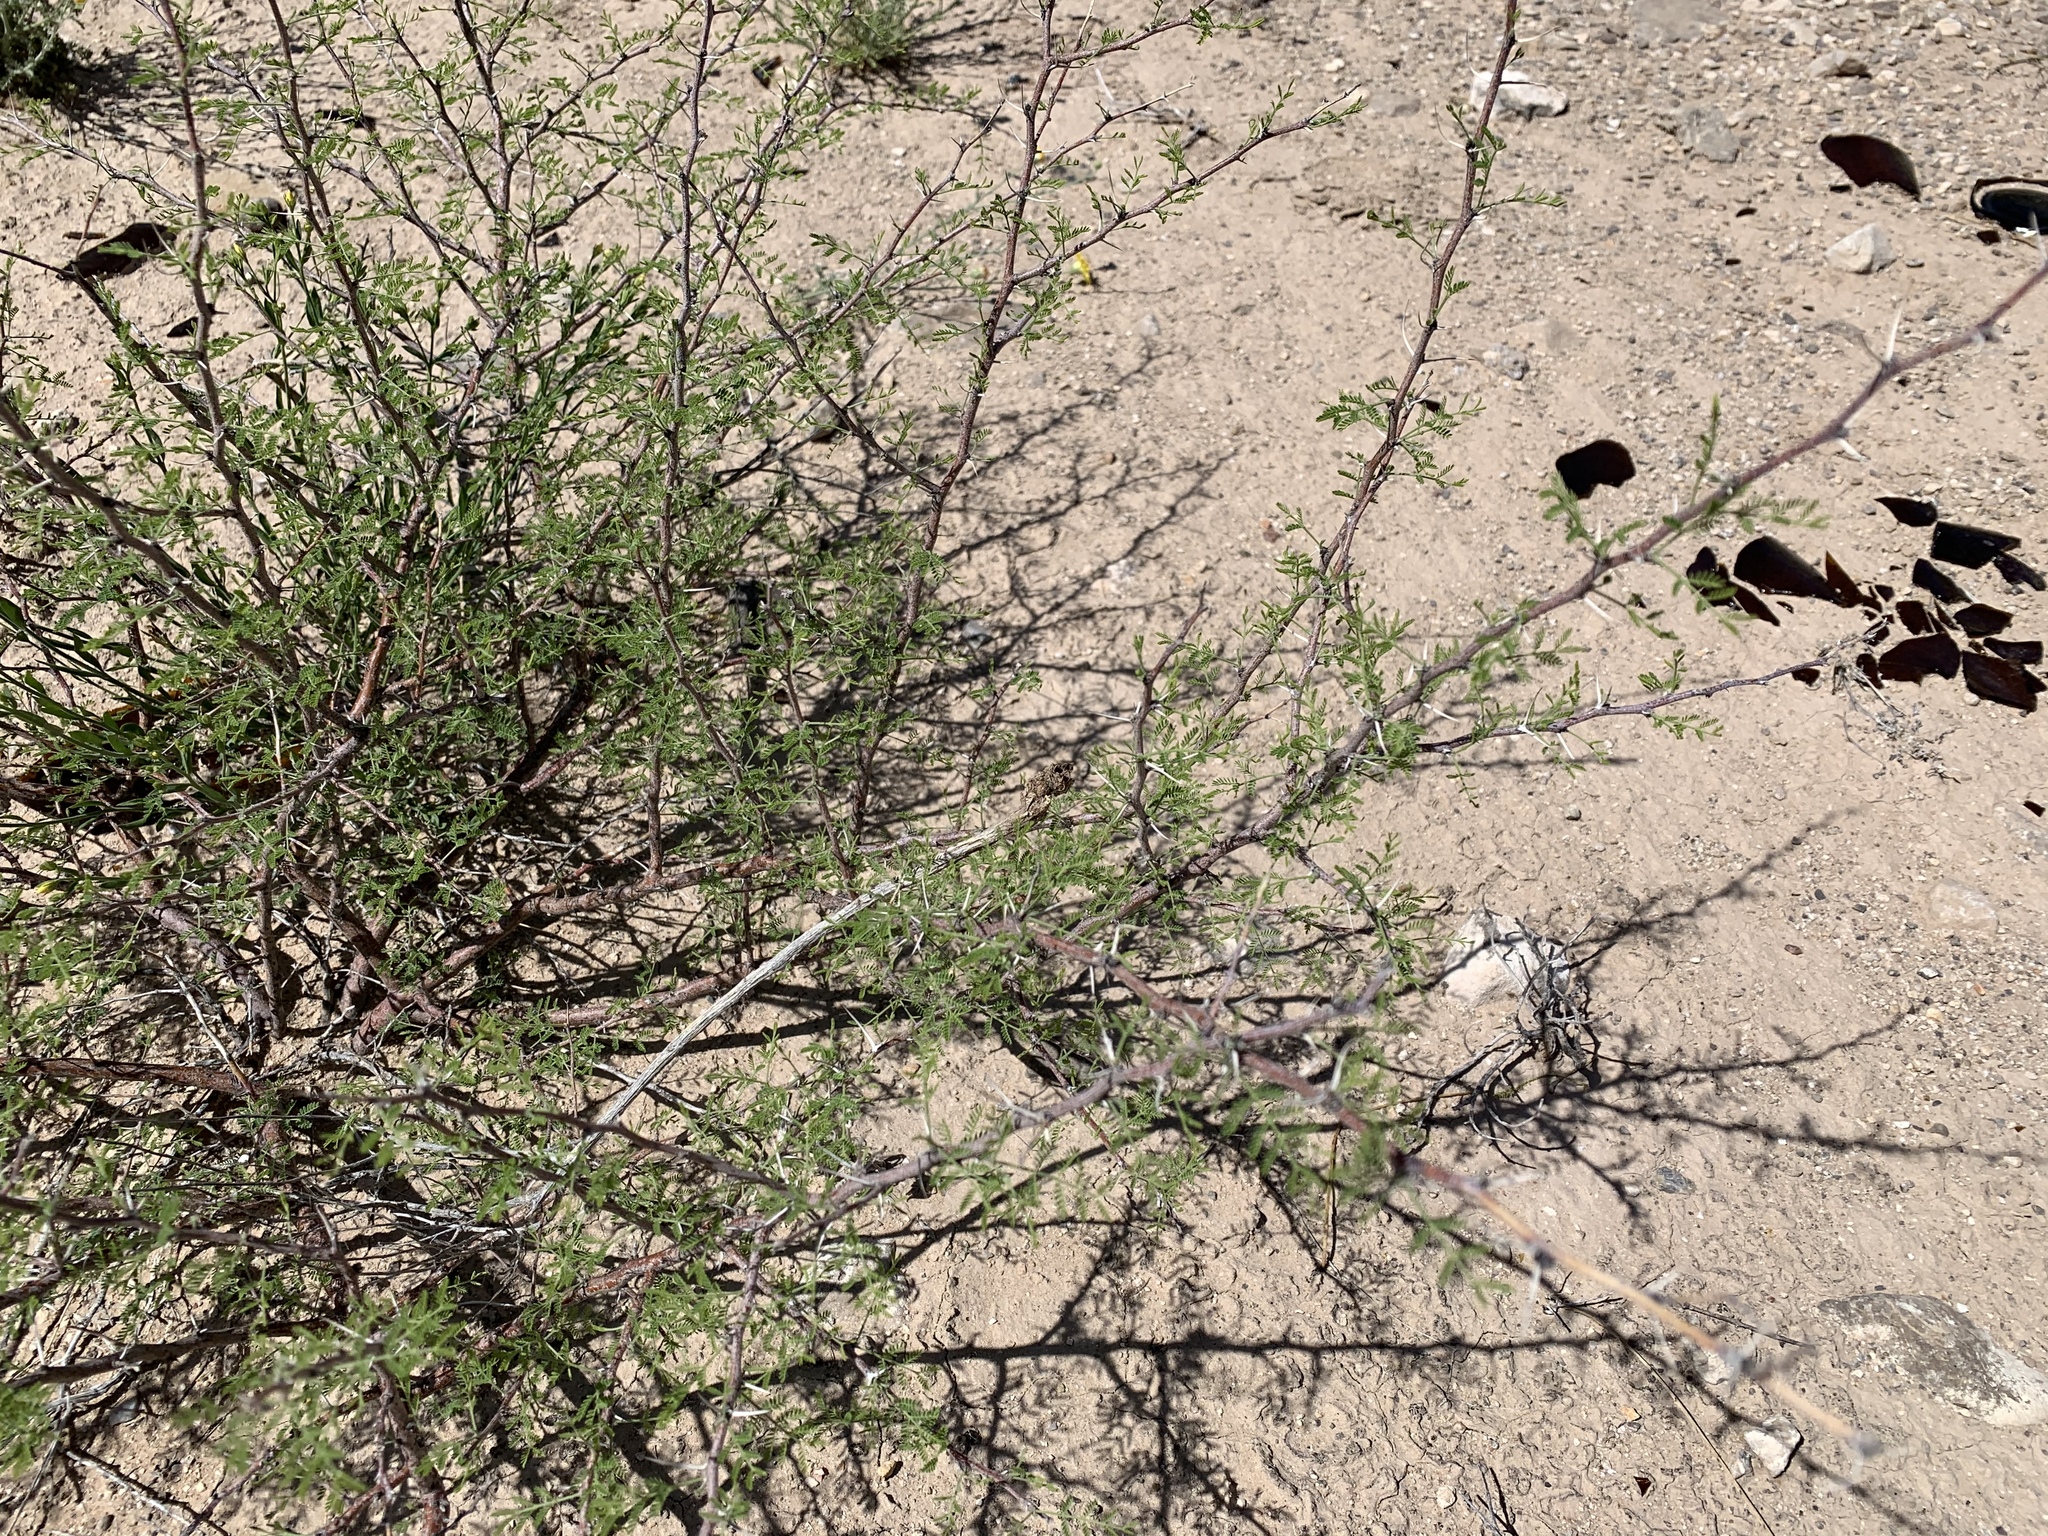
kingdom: Plantae
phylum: Tracheophyta
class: Magnoliopsida
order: Fabales
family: Fabaceae
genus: Vachellia
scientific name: Vachellia constricta
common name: Mescat acacia
